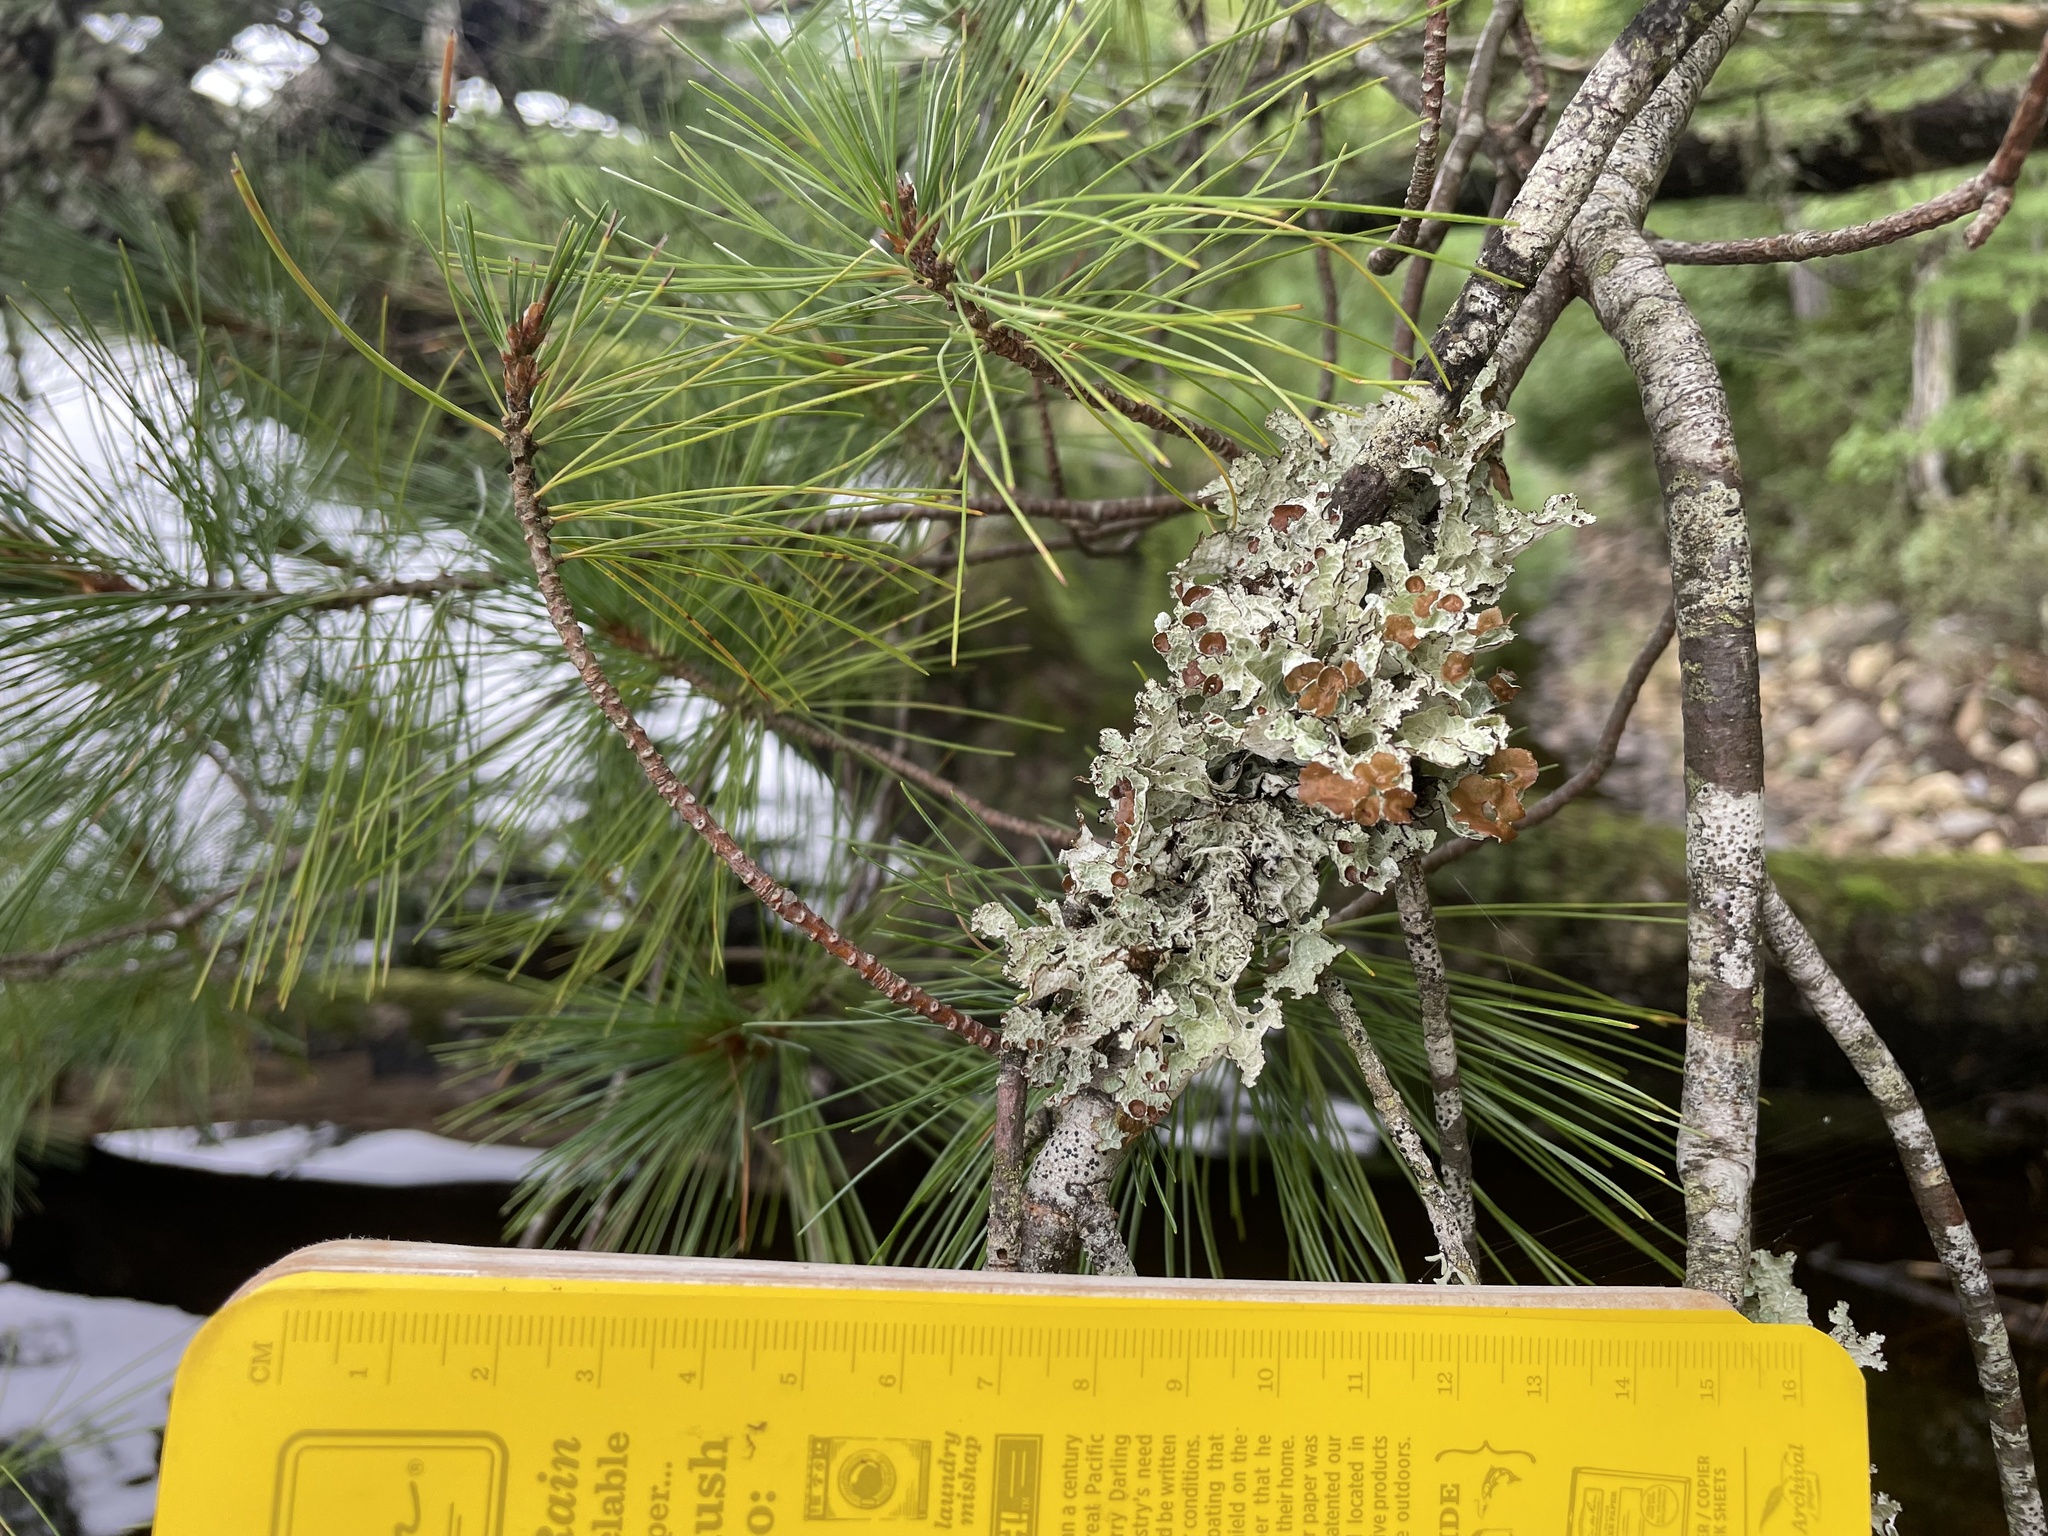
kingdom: Fungi
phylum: Ascomycota
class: Lecanoromycetes
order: Lecanorales
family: Parmeliaceae
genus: Platismatia
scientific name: Platismatia tuckermanii
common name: Crumpled rag lichen
